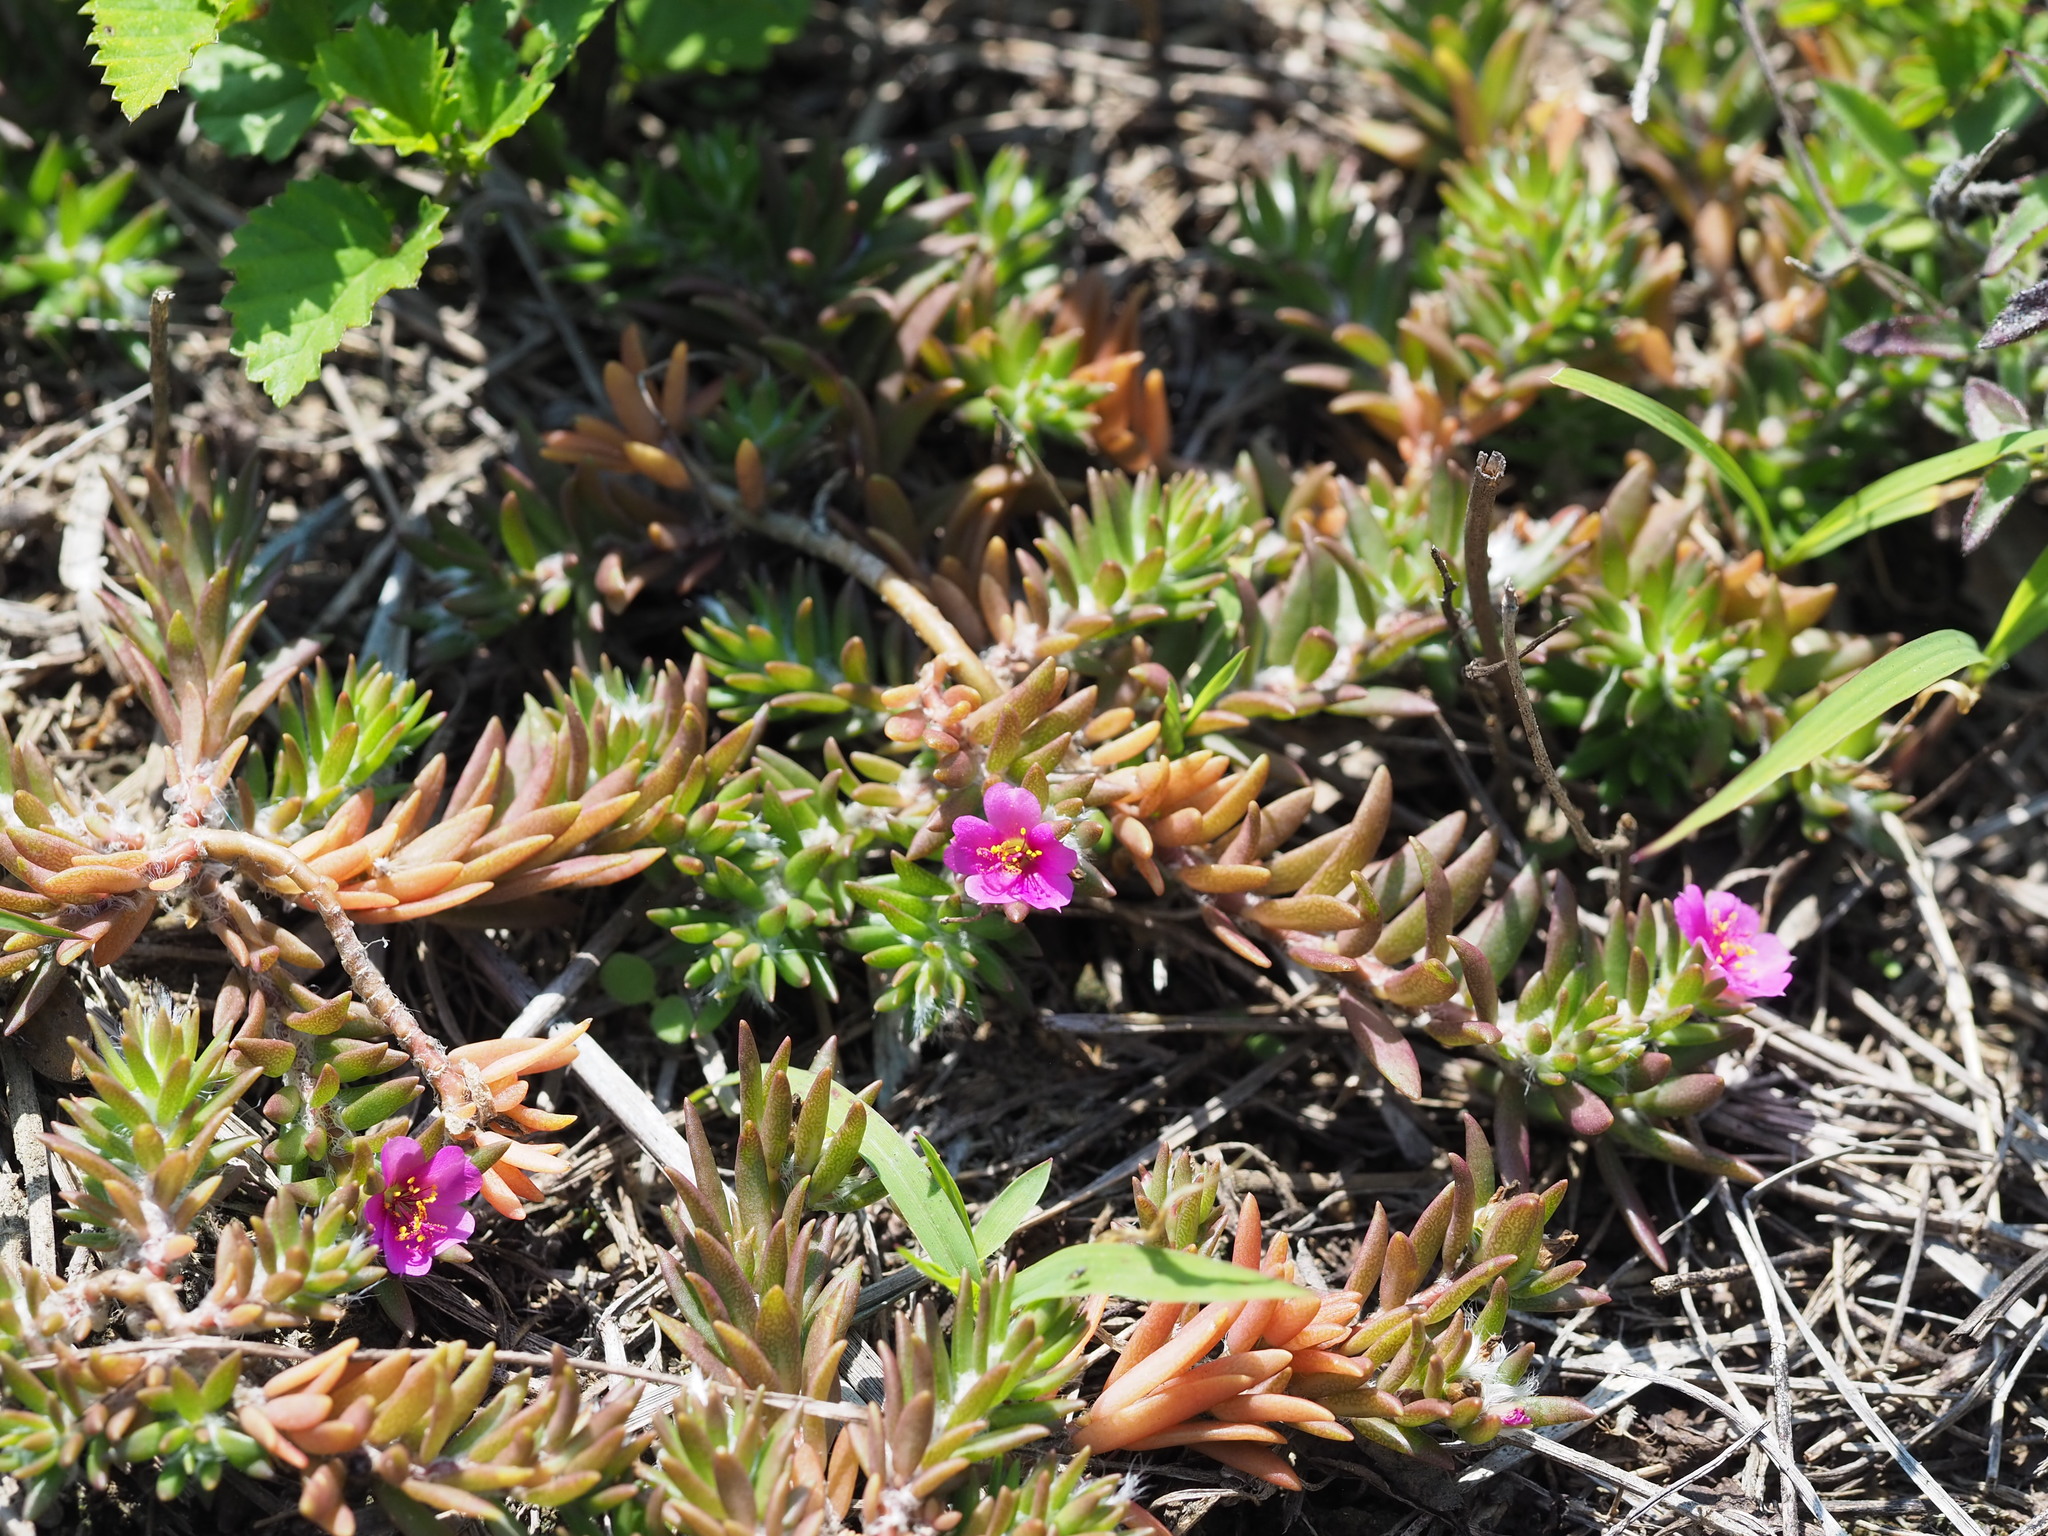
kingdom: Plantae
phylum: Tracheophyta
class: Magnoliopsida
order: Caryophyllales
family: Portulacaceae
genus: Portulaca
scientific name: Portulaca pilosa
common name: Kiss me quick
